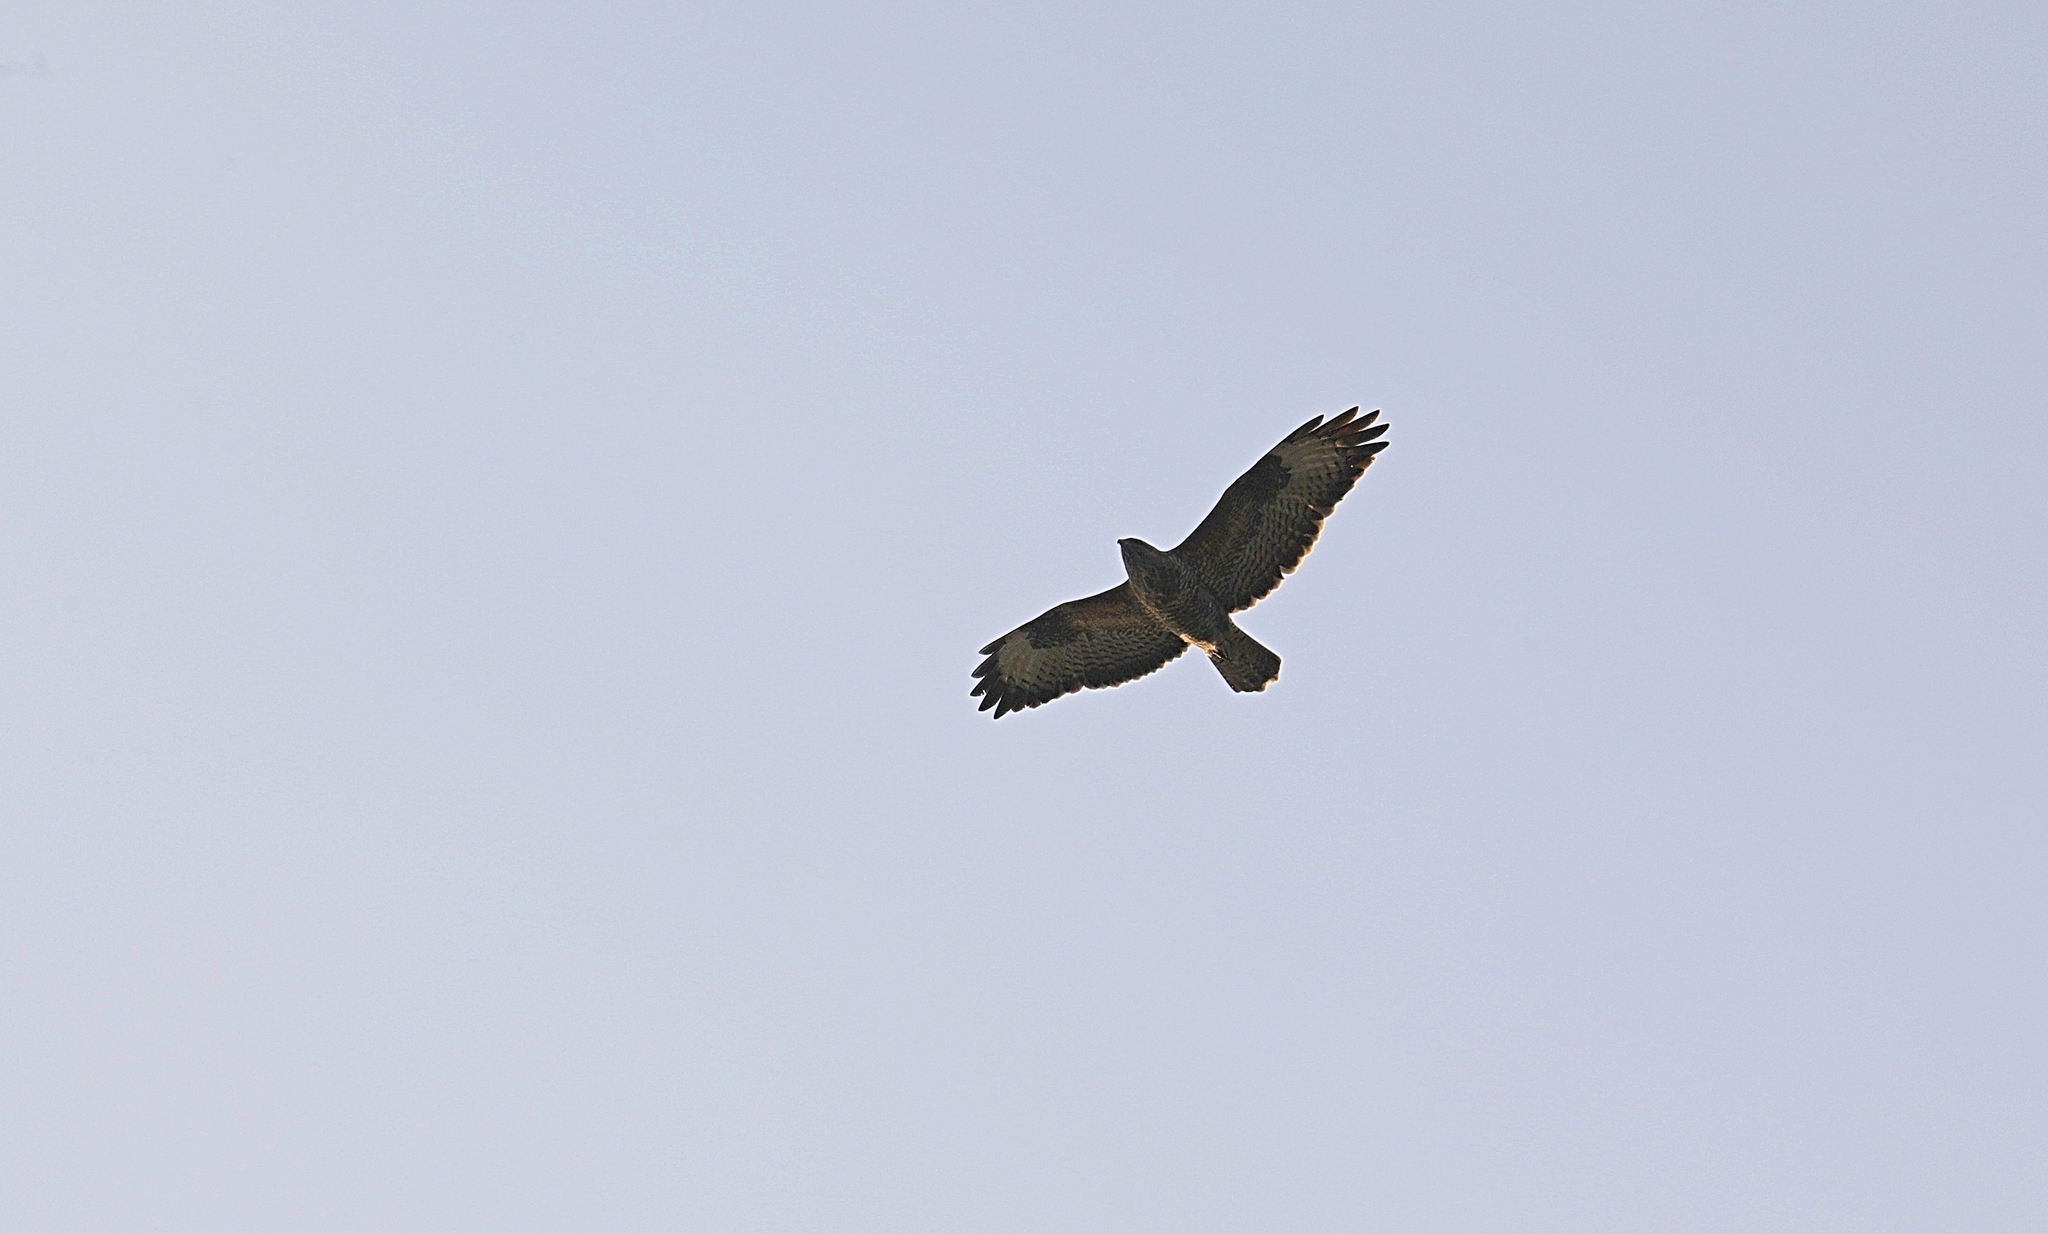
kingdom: Animalia
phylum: Chordata
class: Aves
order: Accipitriformes
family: Accipitridae
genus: Buteo
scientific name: Buteo buteo
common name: Common buzzard
